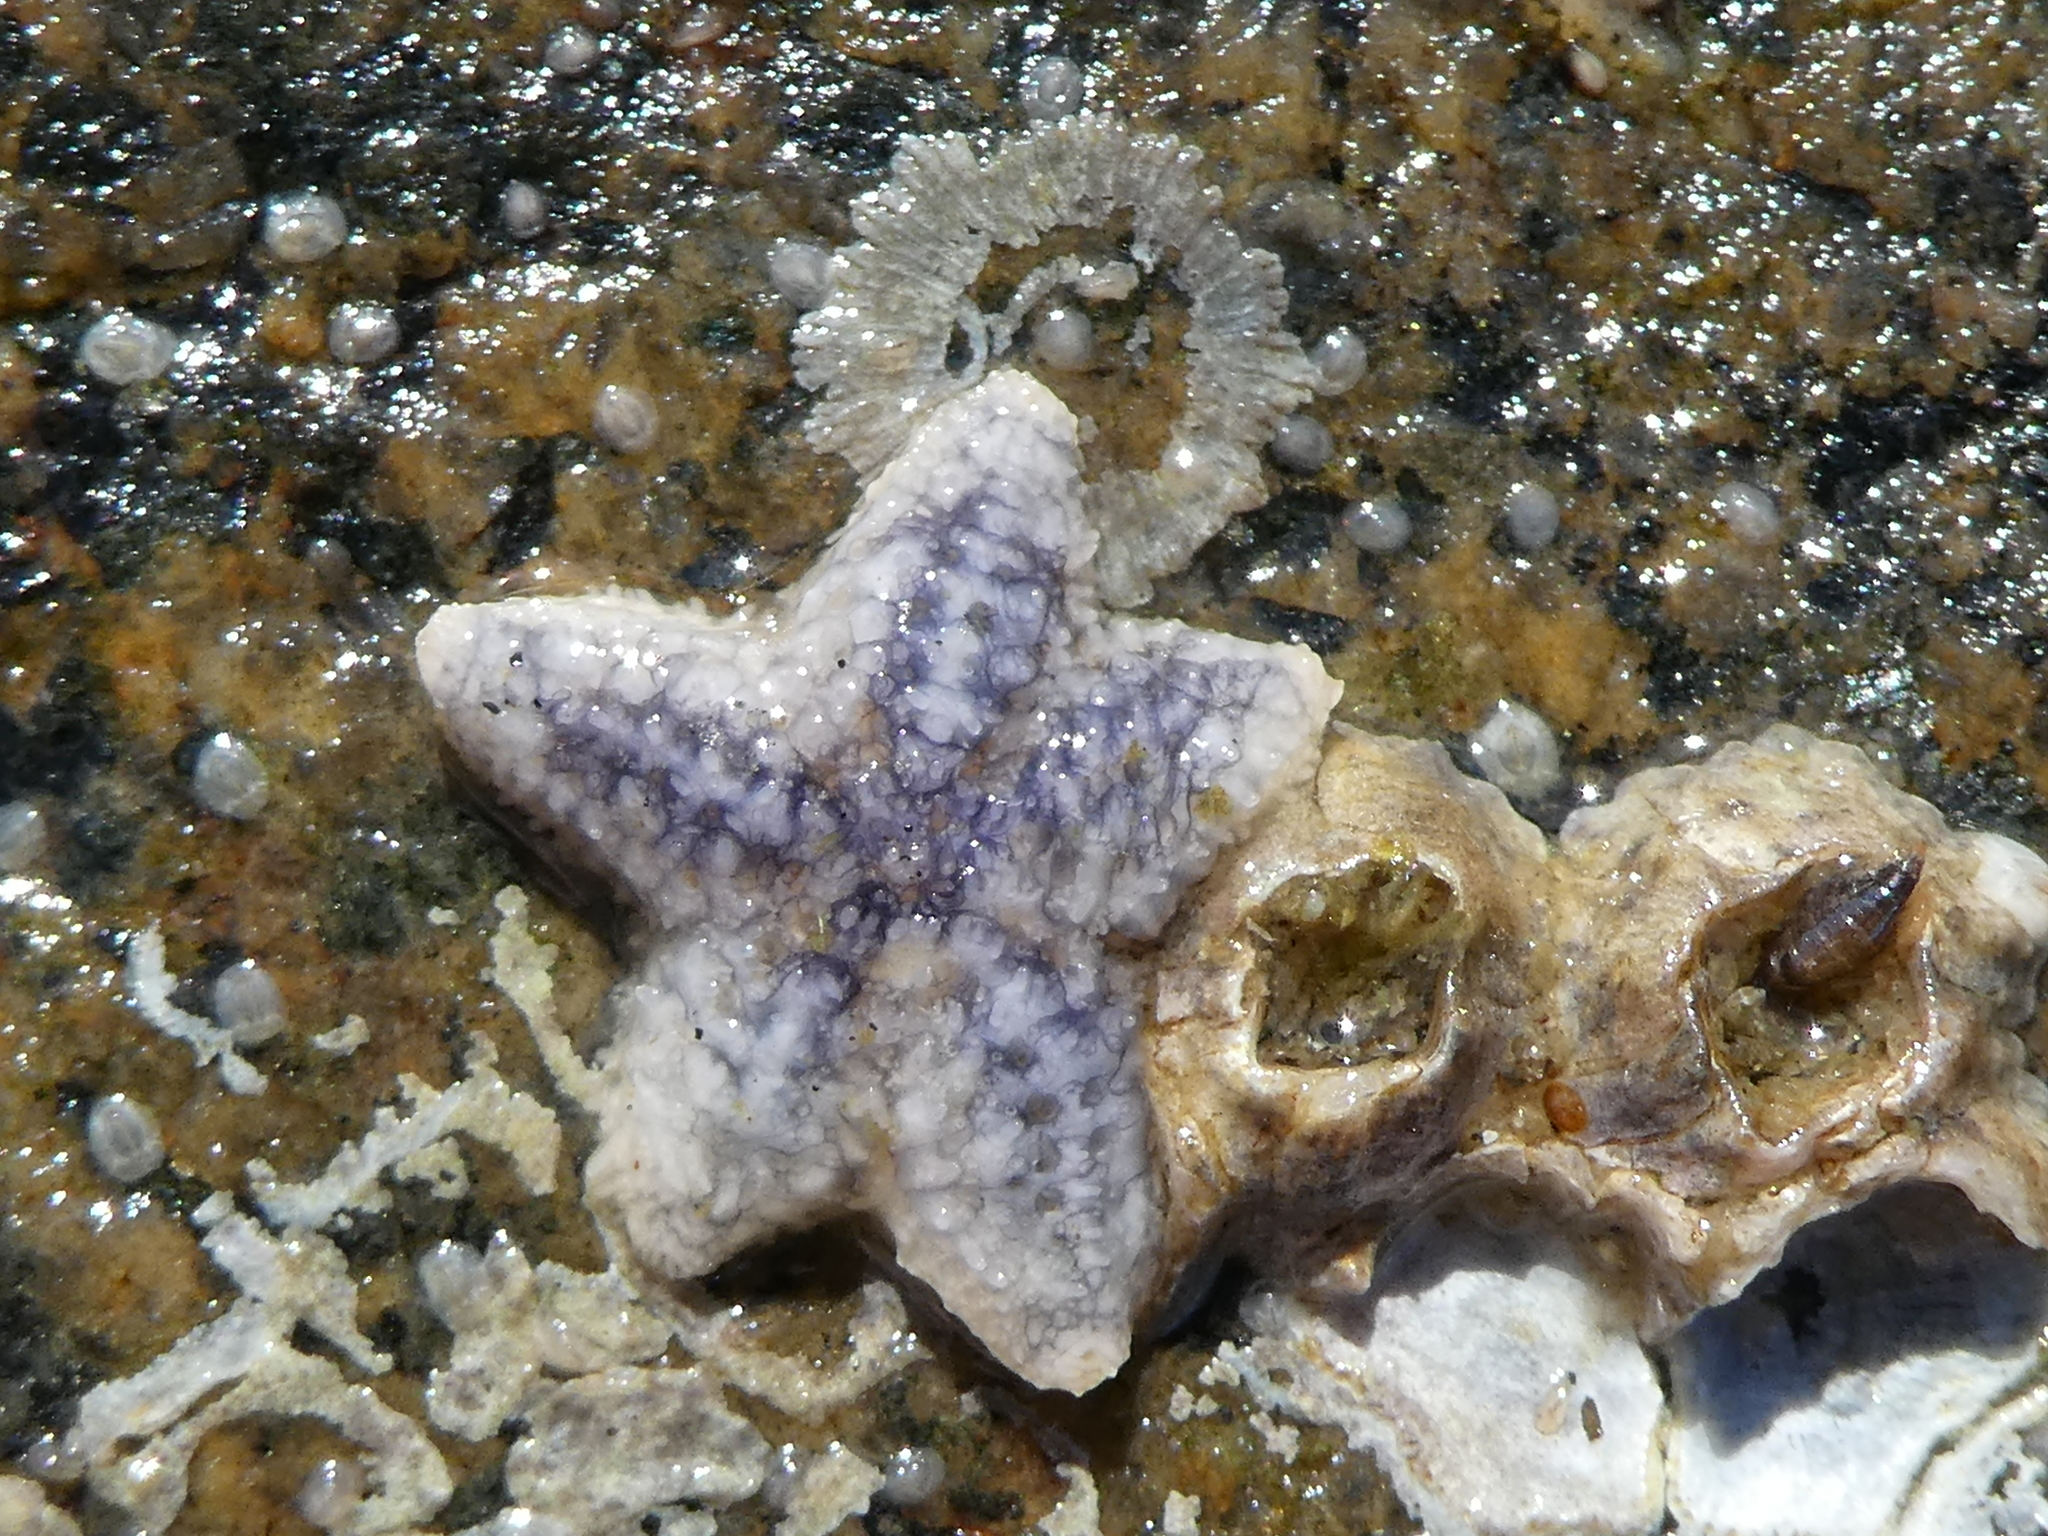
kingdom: Animalia
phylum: Echinodermata
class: Asteroidea
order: Forcipulatida
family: Asteriidae
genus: Pisaster
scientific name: Pisaster ochraceus
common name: Ochre stars
